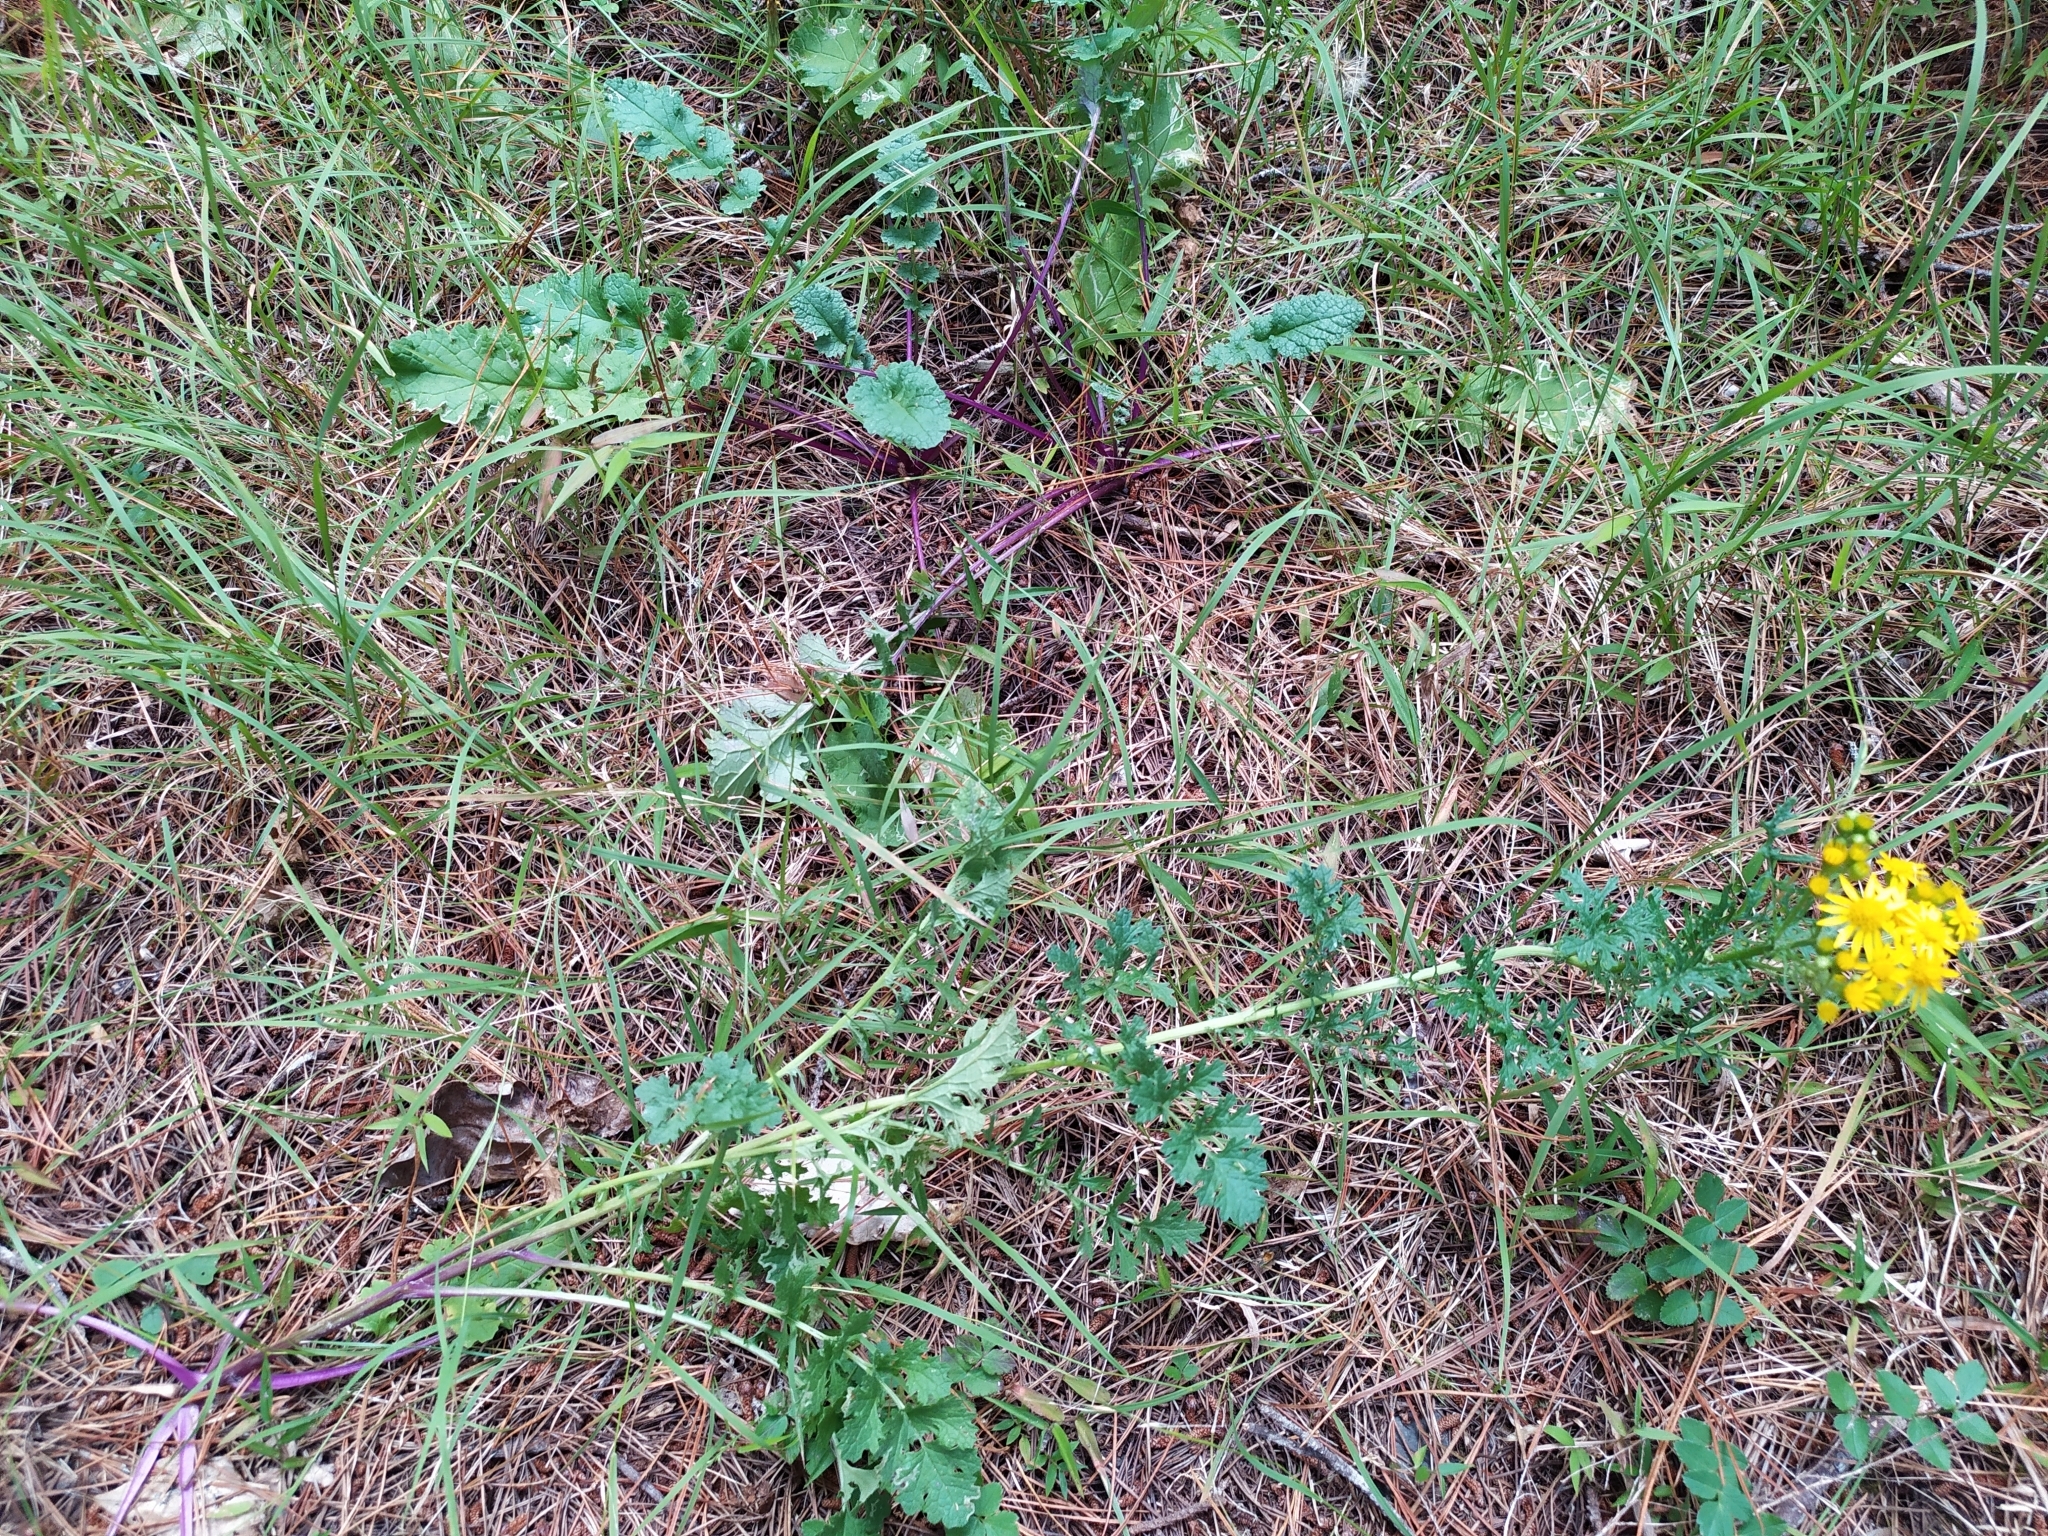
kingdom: Plantae
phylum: Tracheophyta
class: Magnoliopsida
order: Asterales
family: Asteraceae
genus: Jacobaea
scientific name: Jacobaea vulgaris
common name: Stinking willie
